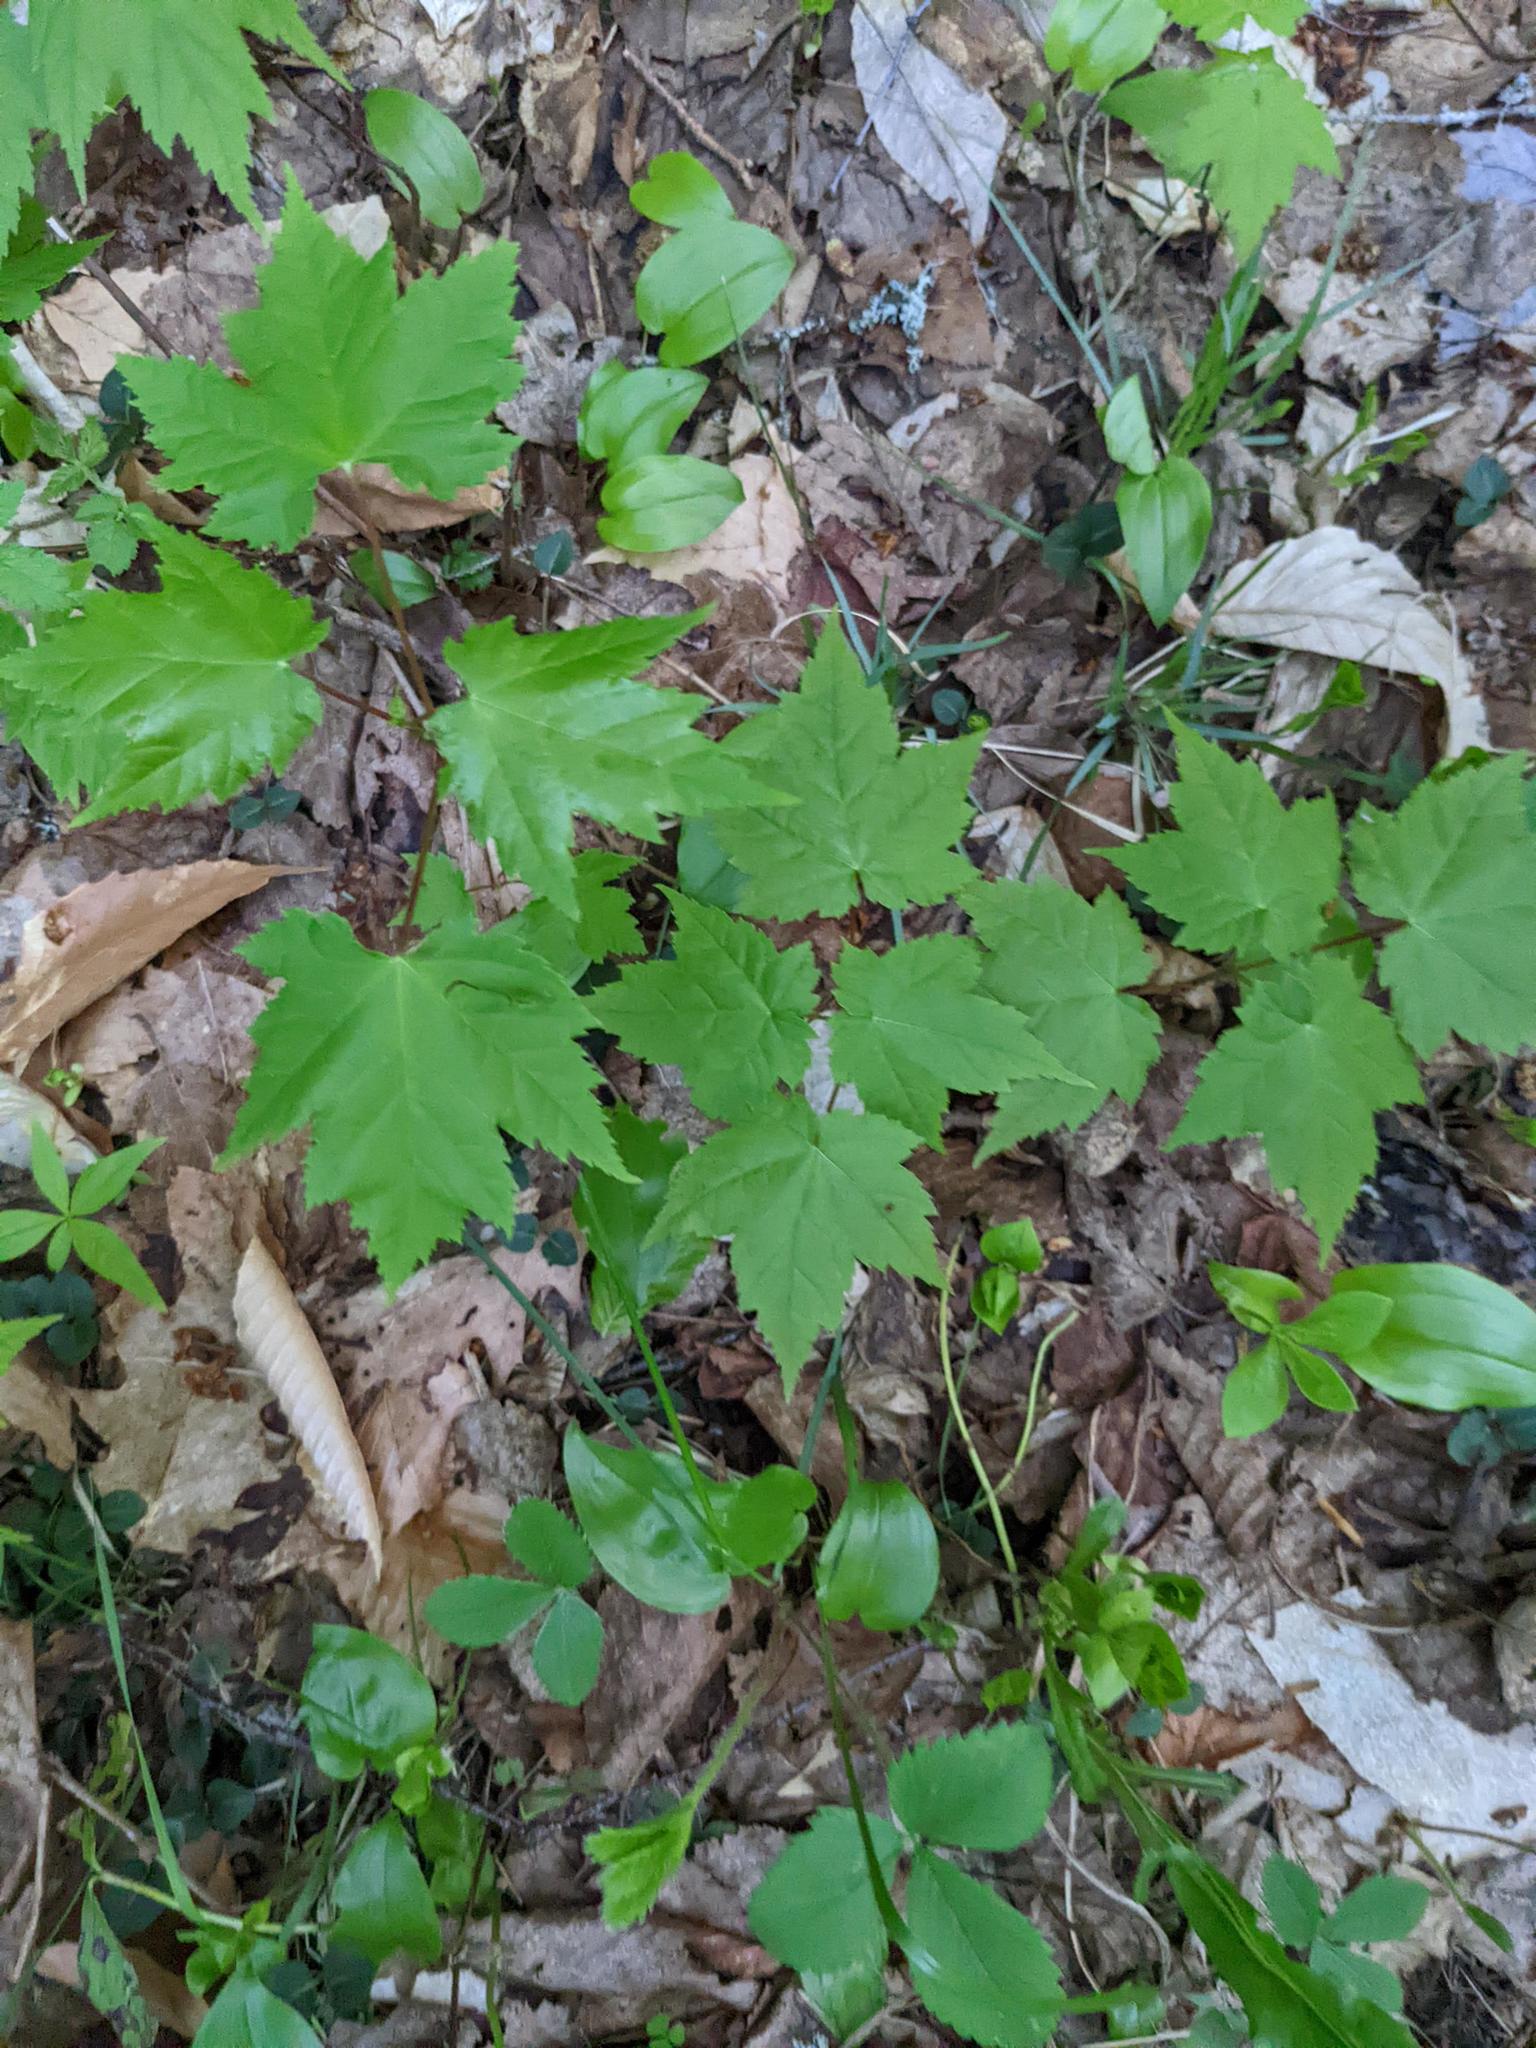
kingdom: Plantae
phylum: Tracheophyta
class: Magnoliopsida
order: Sapindales
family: Sapindaceae
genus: Acer
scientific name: Acer rubrum
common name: Red maple
